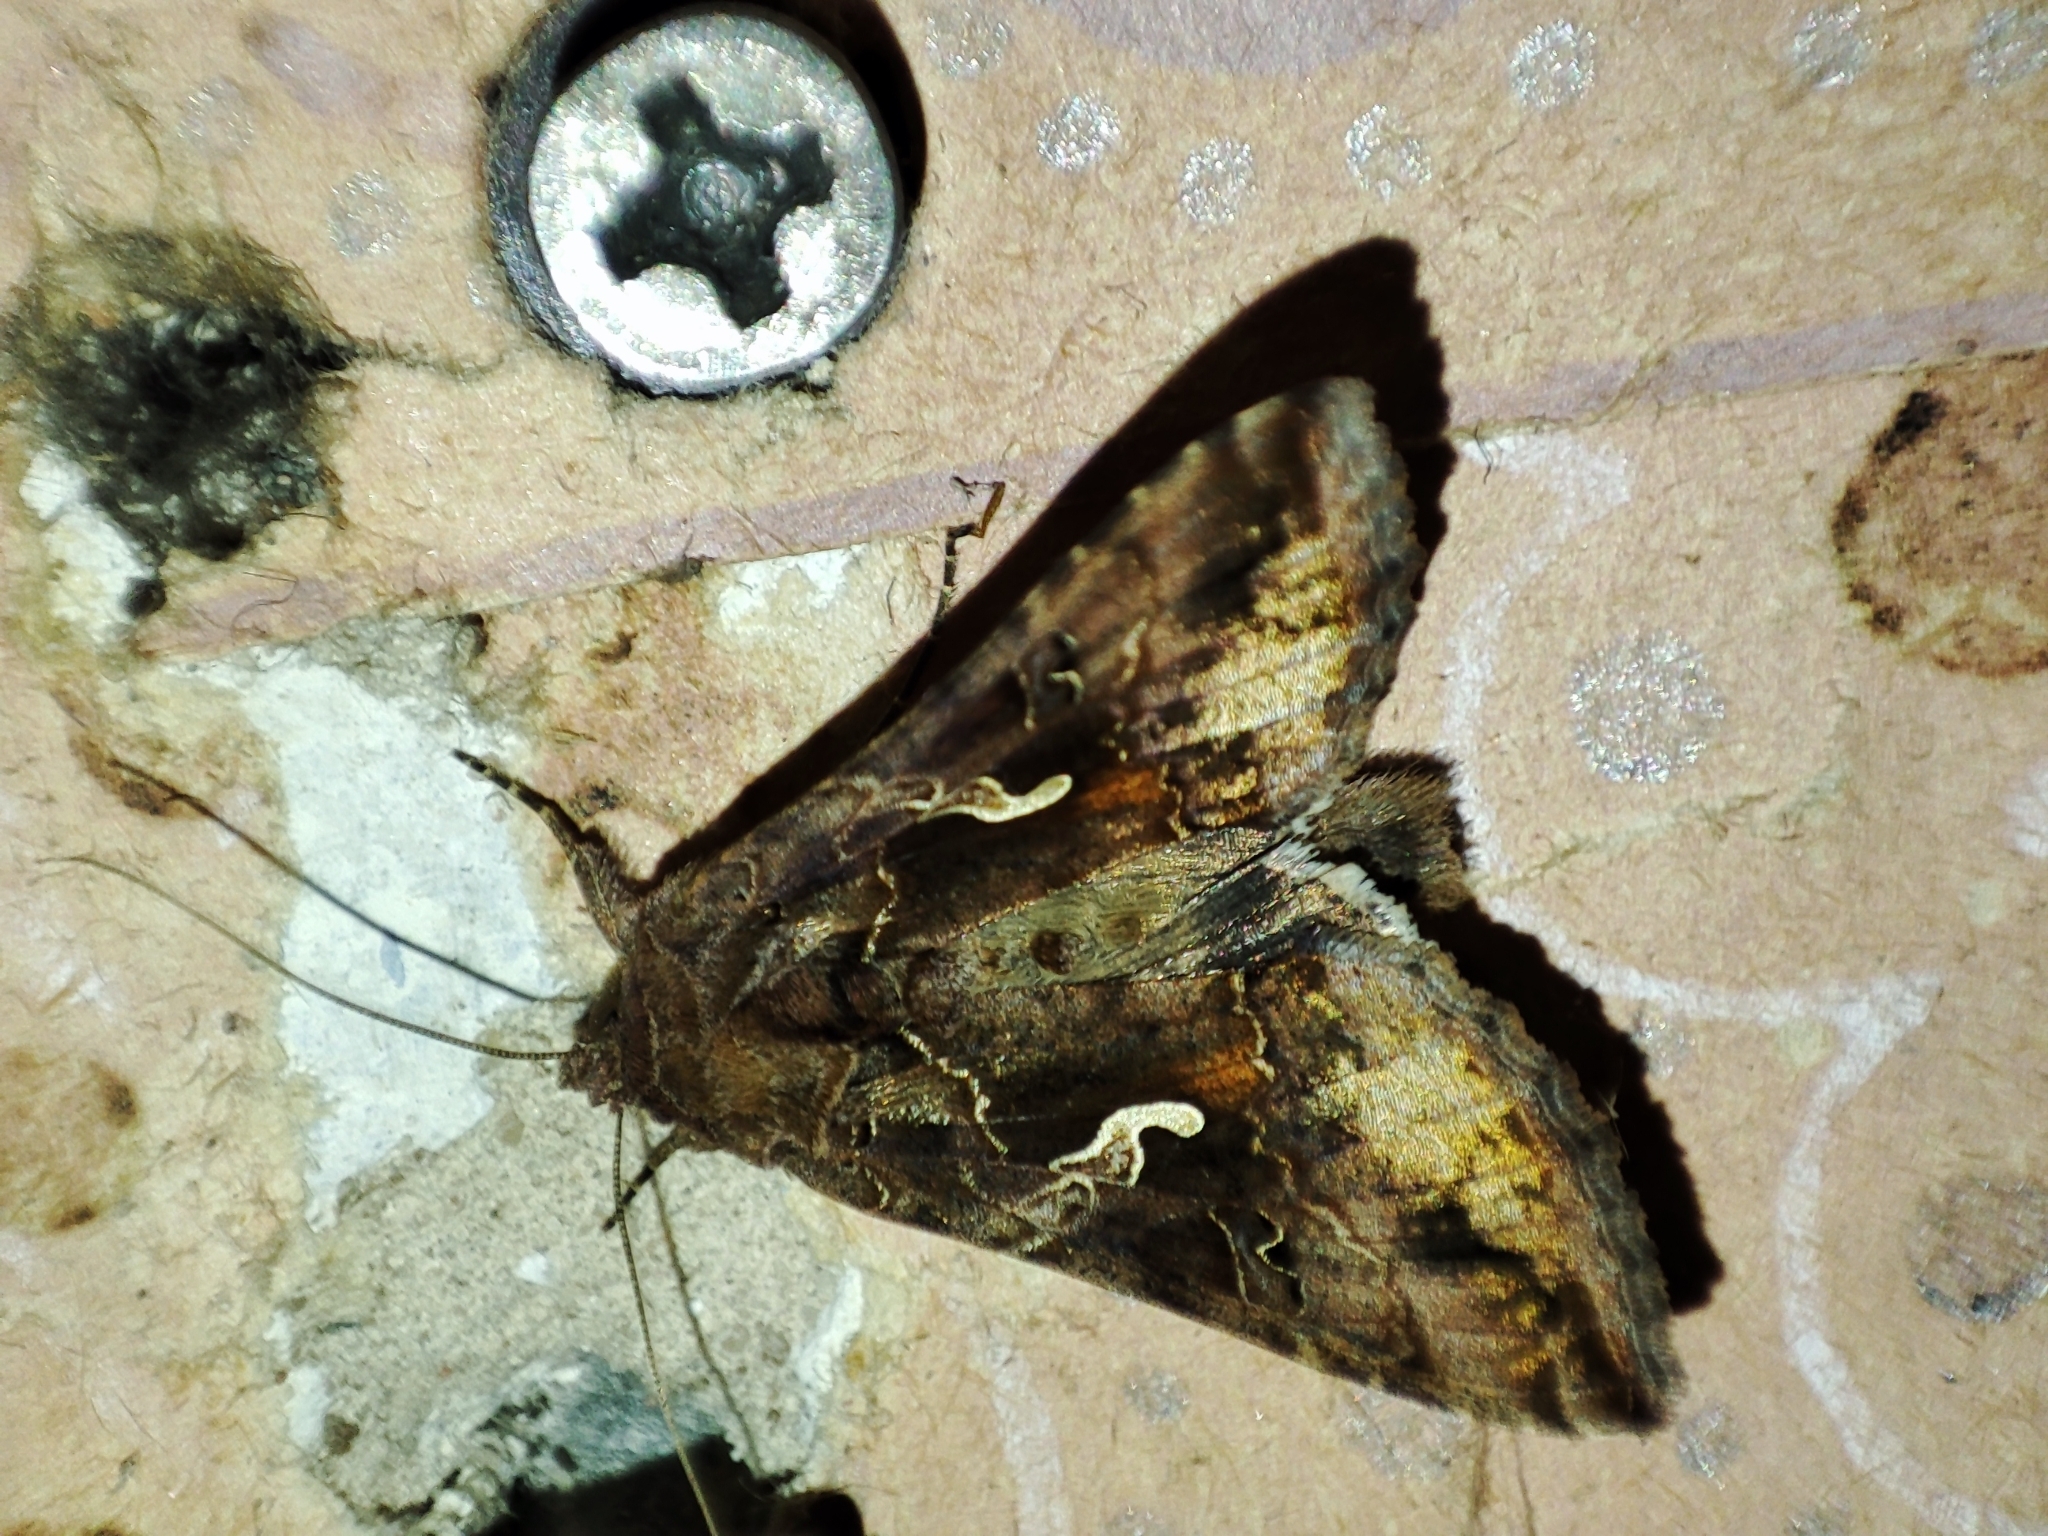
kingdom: Animalia
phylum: Arthropoda
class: Insecta
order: Lepidoptera
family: Noctuidae
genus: Autographa
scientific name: Autographa gamma
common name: Silver y
